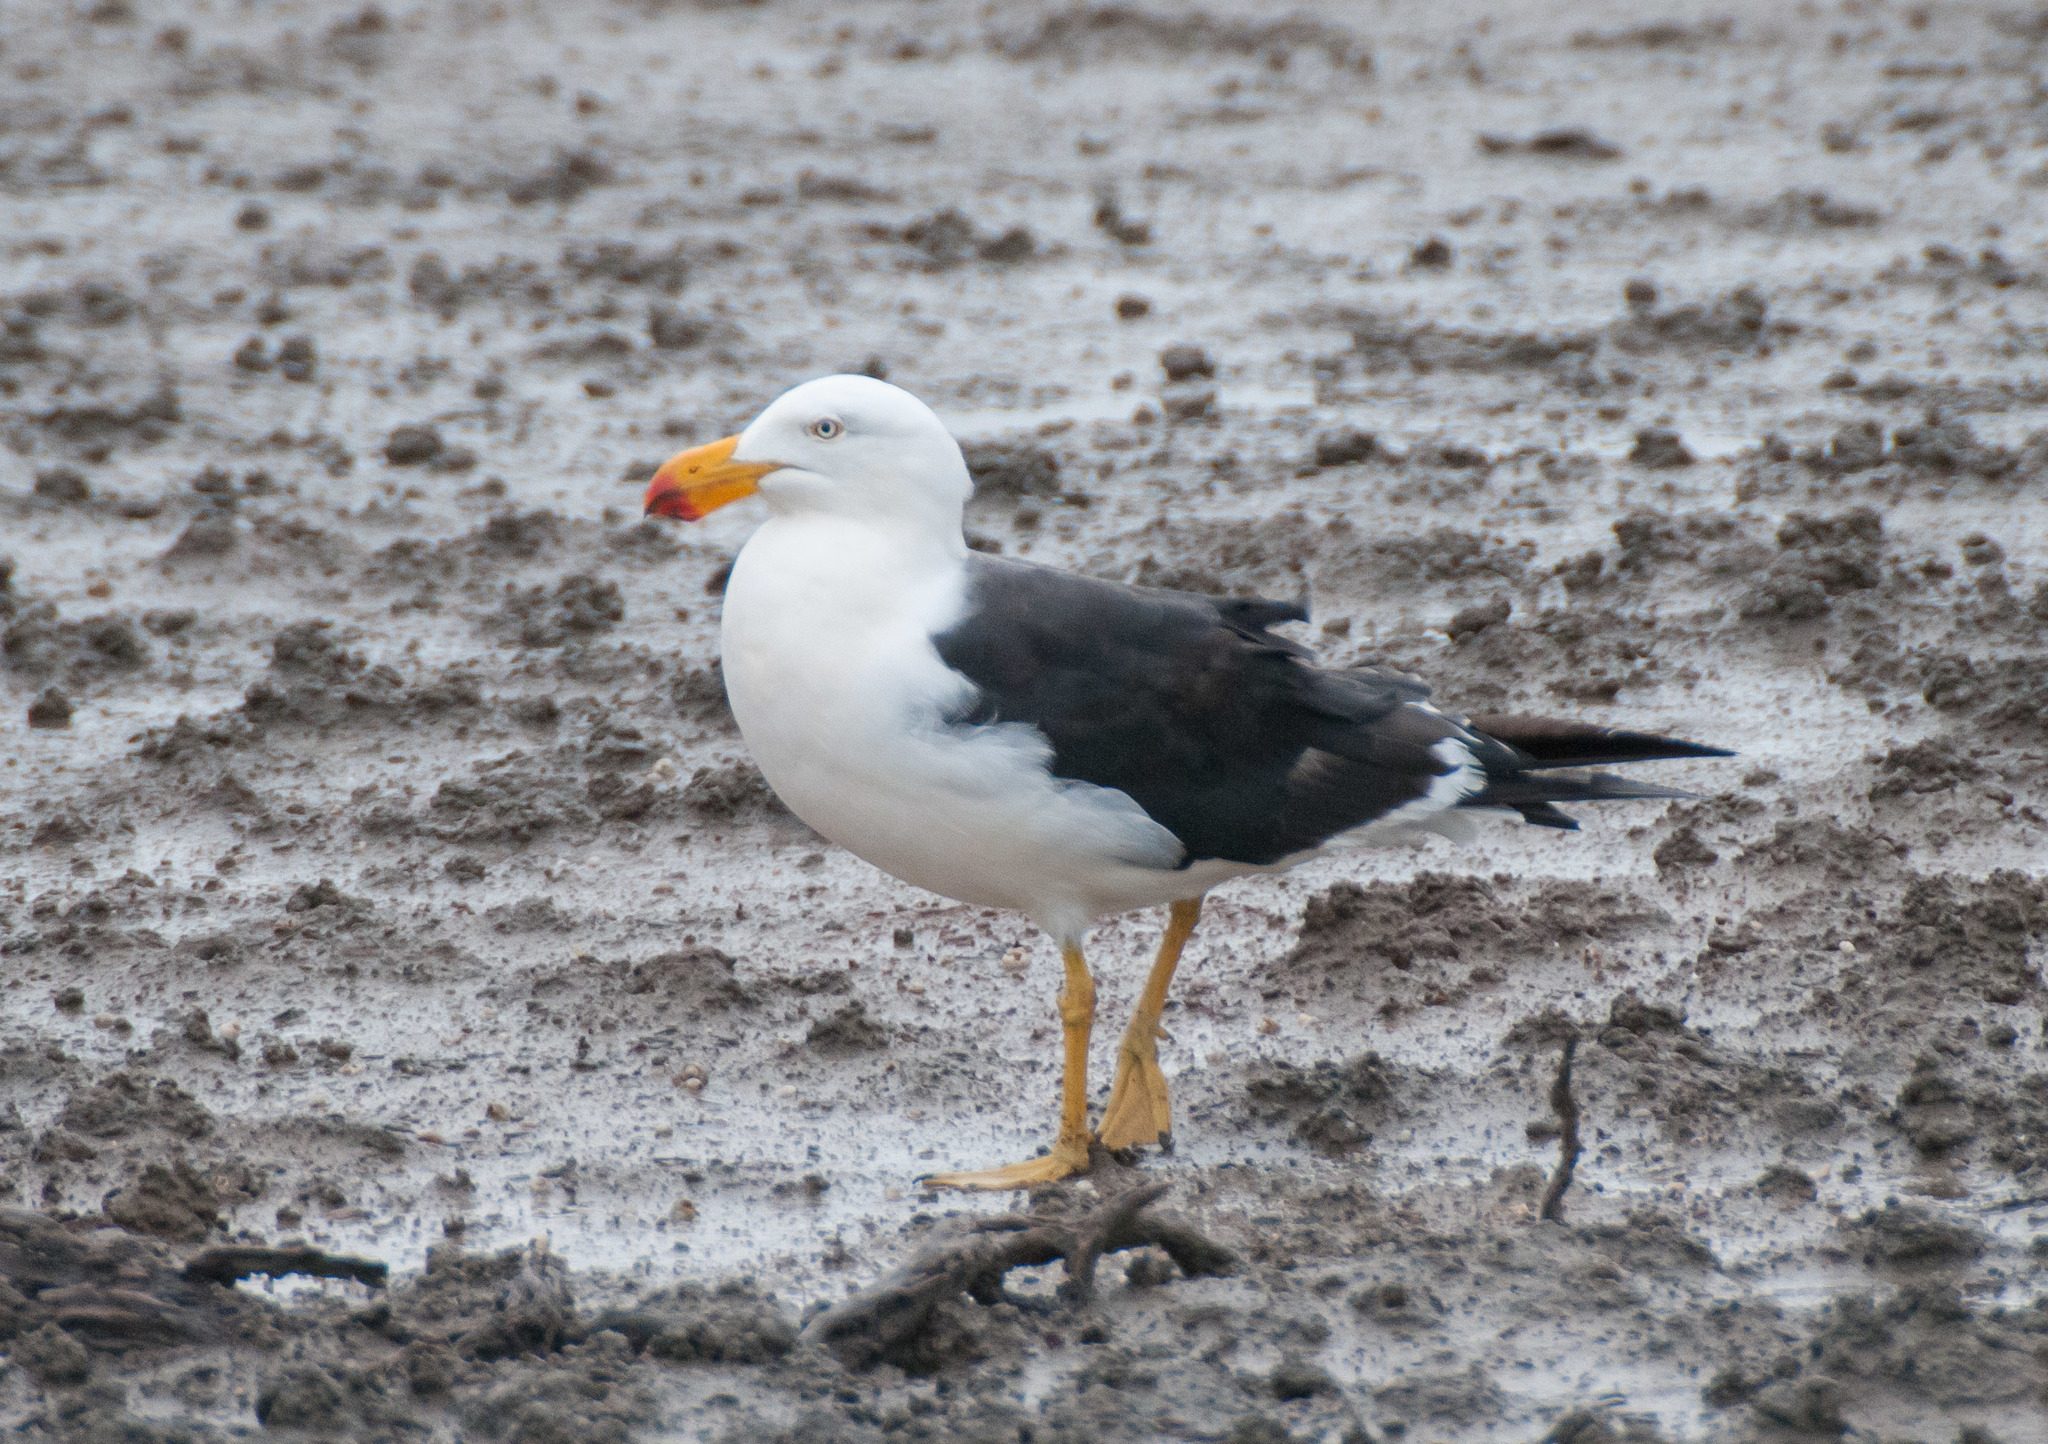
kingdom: Animalia
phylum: Chordata
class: Aves
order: Charadriiformes
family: Laridae
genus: Larus
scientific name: Larus pacificus
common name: Pacific gull
